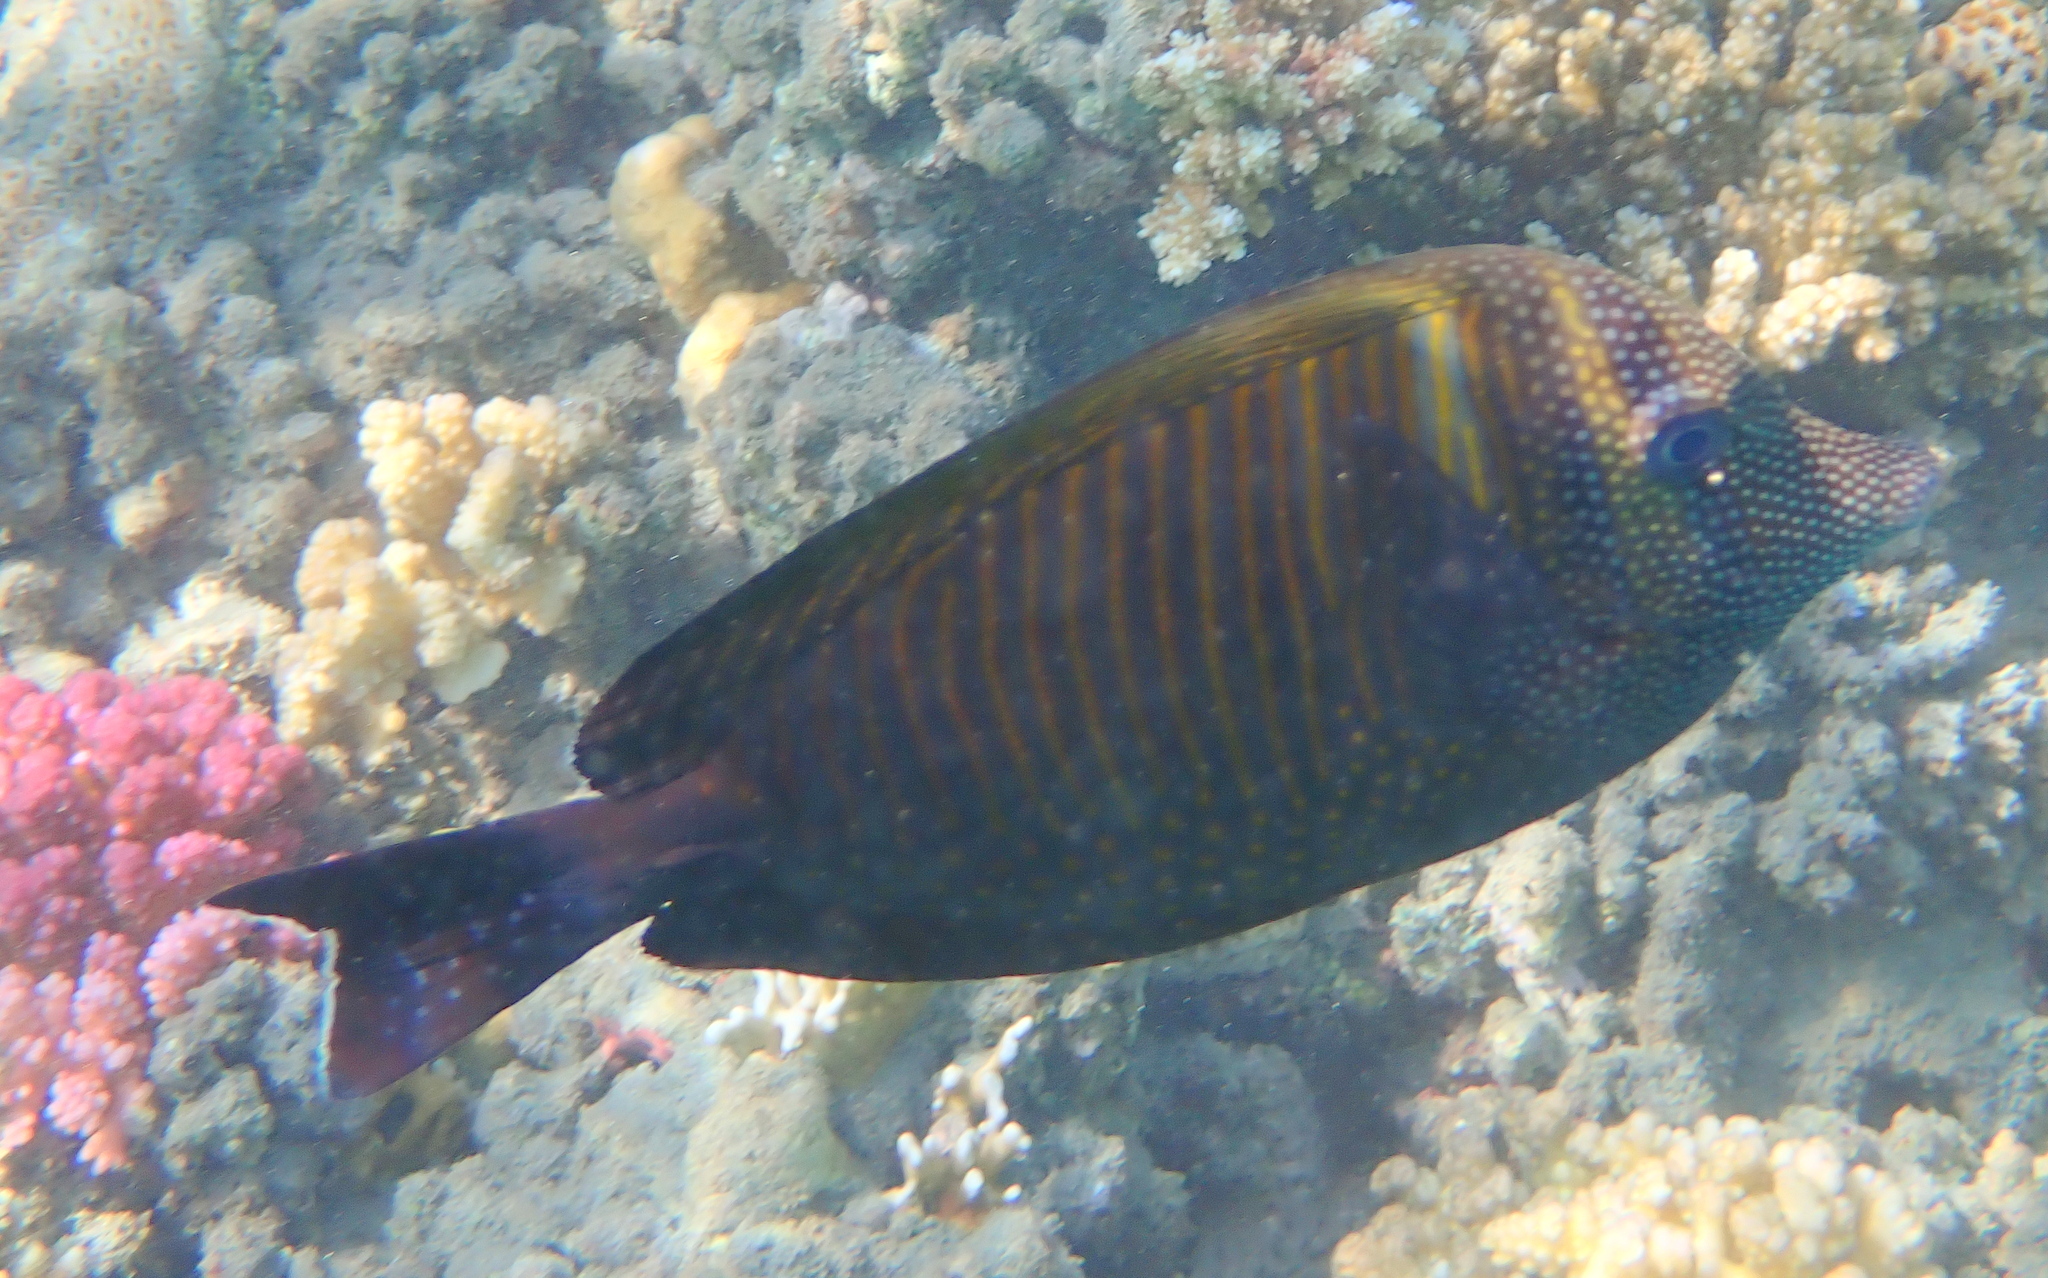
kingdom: Animalia
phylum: Chordata
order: Perciformes
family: Acanthuridae
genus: Zebrasoma
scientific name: Zebrasoma desjardinii
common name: Desjardin's sailfin tang
